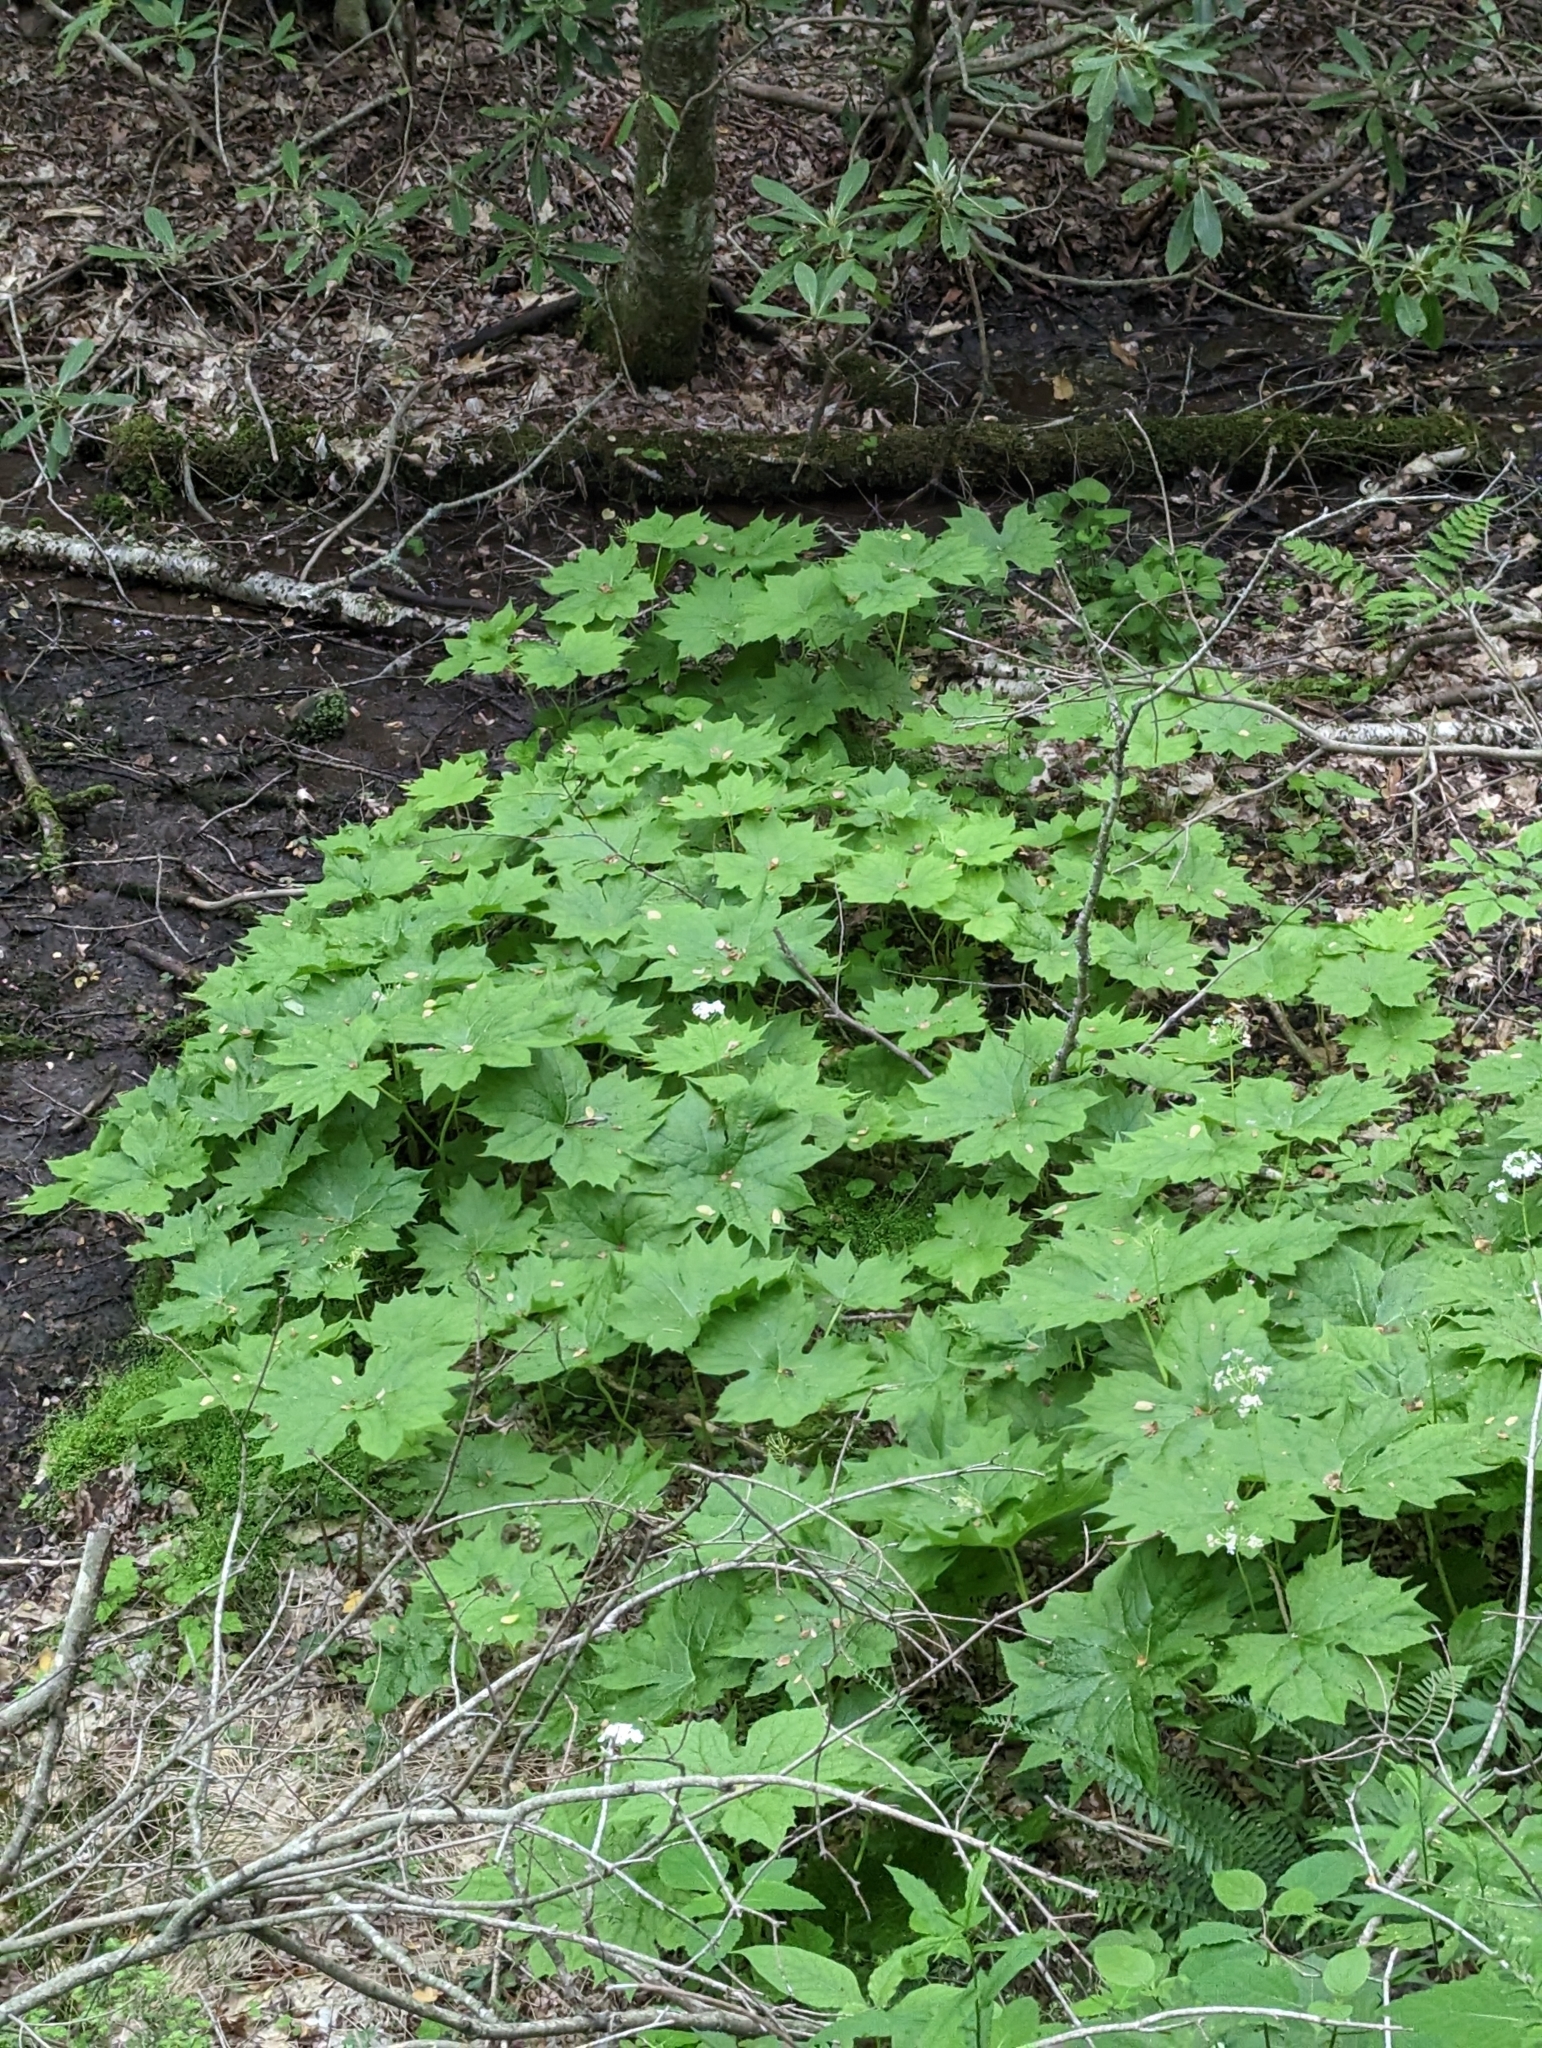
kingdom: Plantae
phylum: Tracheophyta
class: Magnoliopsida
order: Ranunculales
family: Berberidaceae
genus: Diphylleia
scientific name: Diphylleia cymosa
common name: Umbrella-leaf
